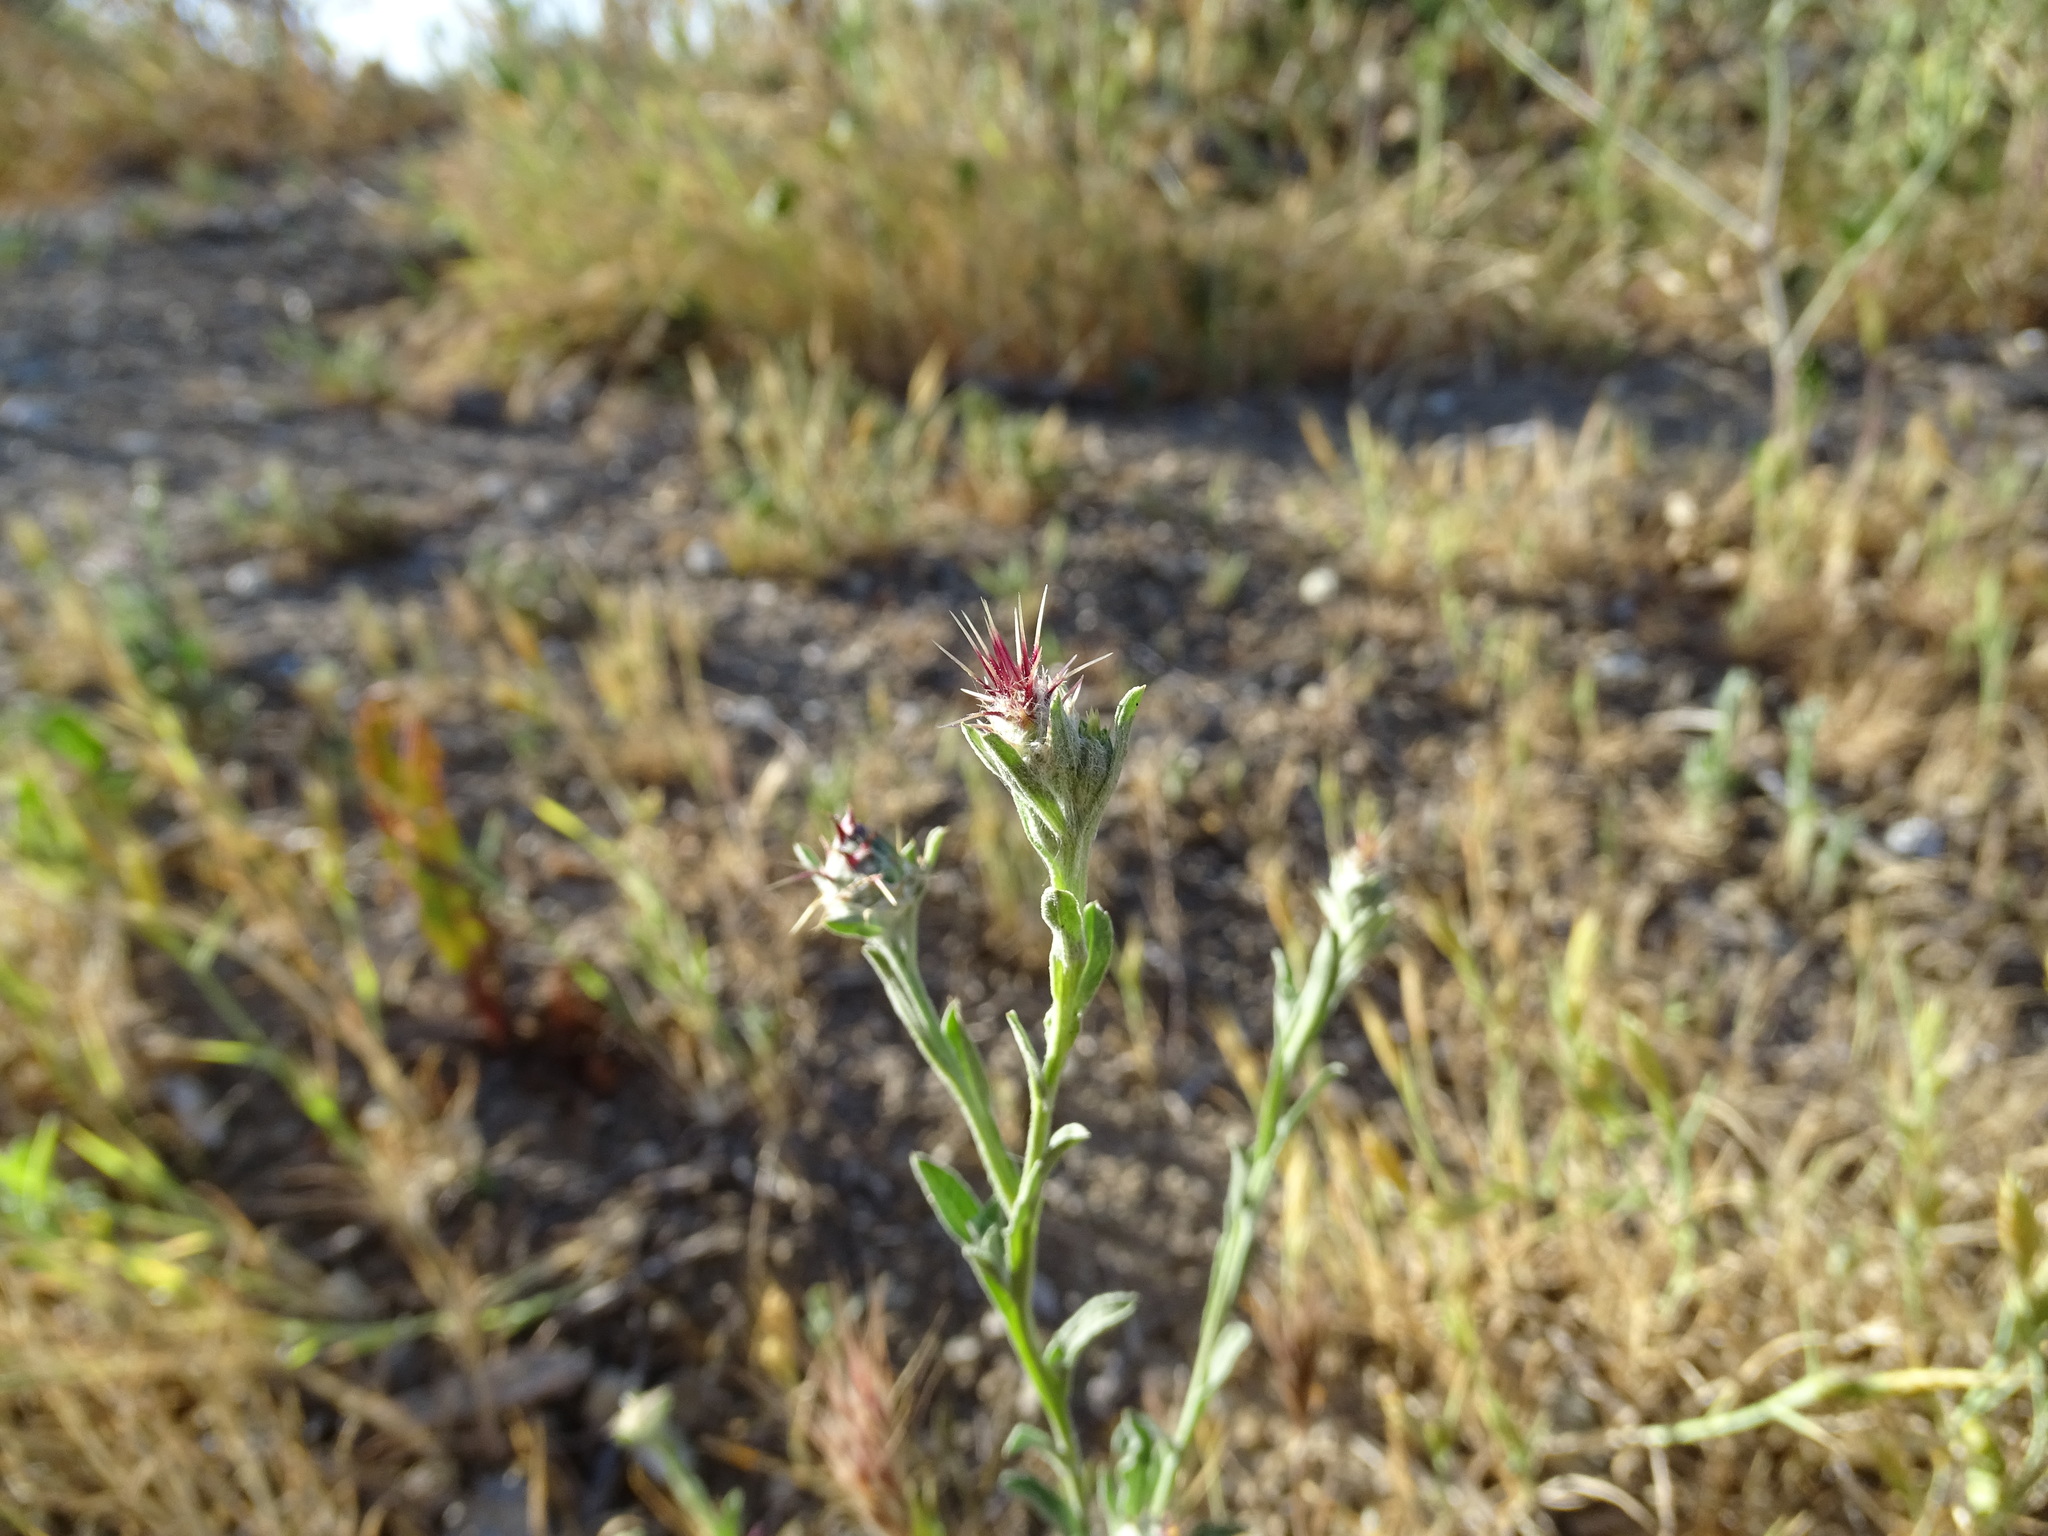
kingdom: Plantae
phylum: Tracheophyta
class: Magnoliopsida
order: Asterales
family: Asteraceae
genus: Centaurea
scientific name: Centaurea melitensis
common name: Maltese star-thistle
